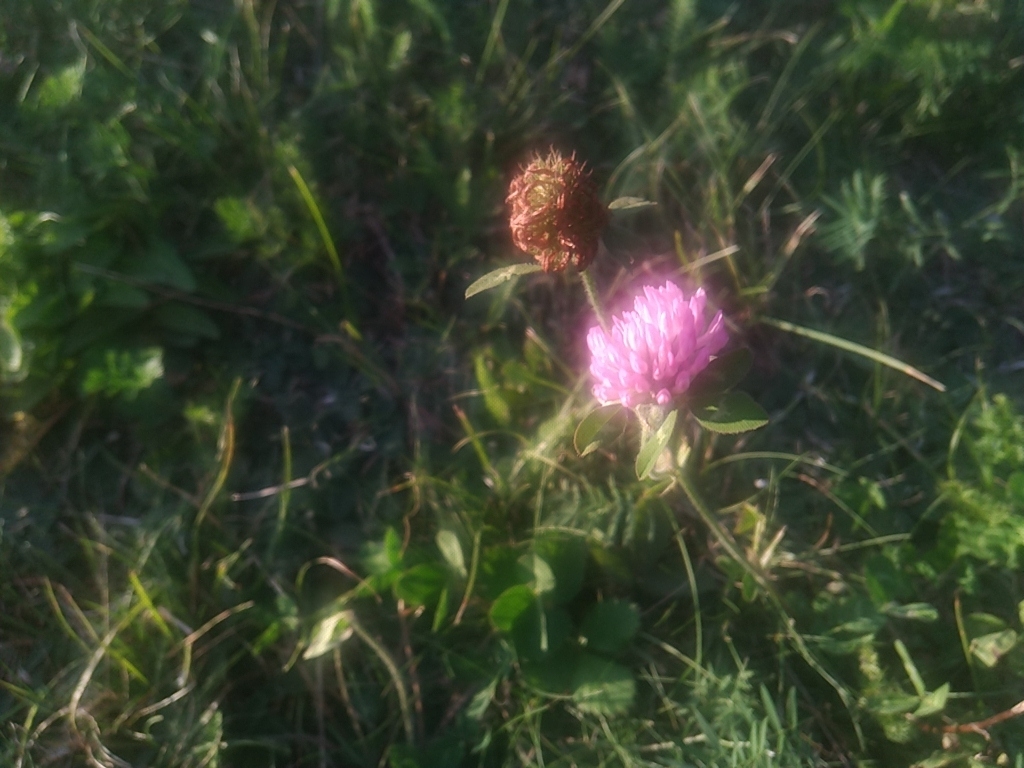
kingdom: Plantae
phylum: Tracheophyta
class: Magnoliopsida
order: Fabales
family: Fabaceae
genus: Trifolium
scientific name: Trifolium pratense
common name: Red clover
